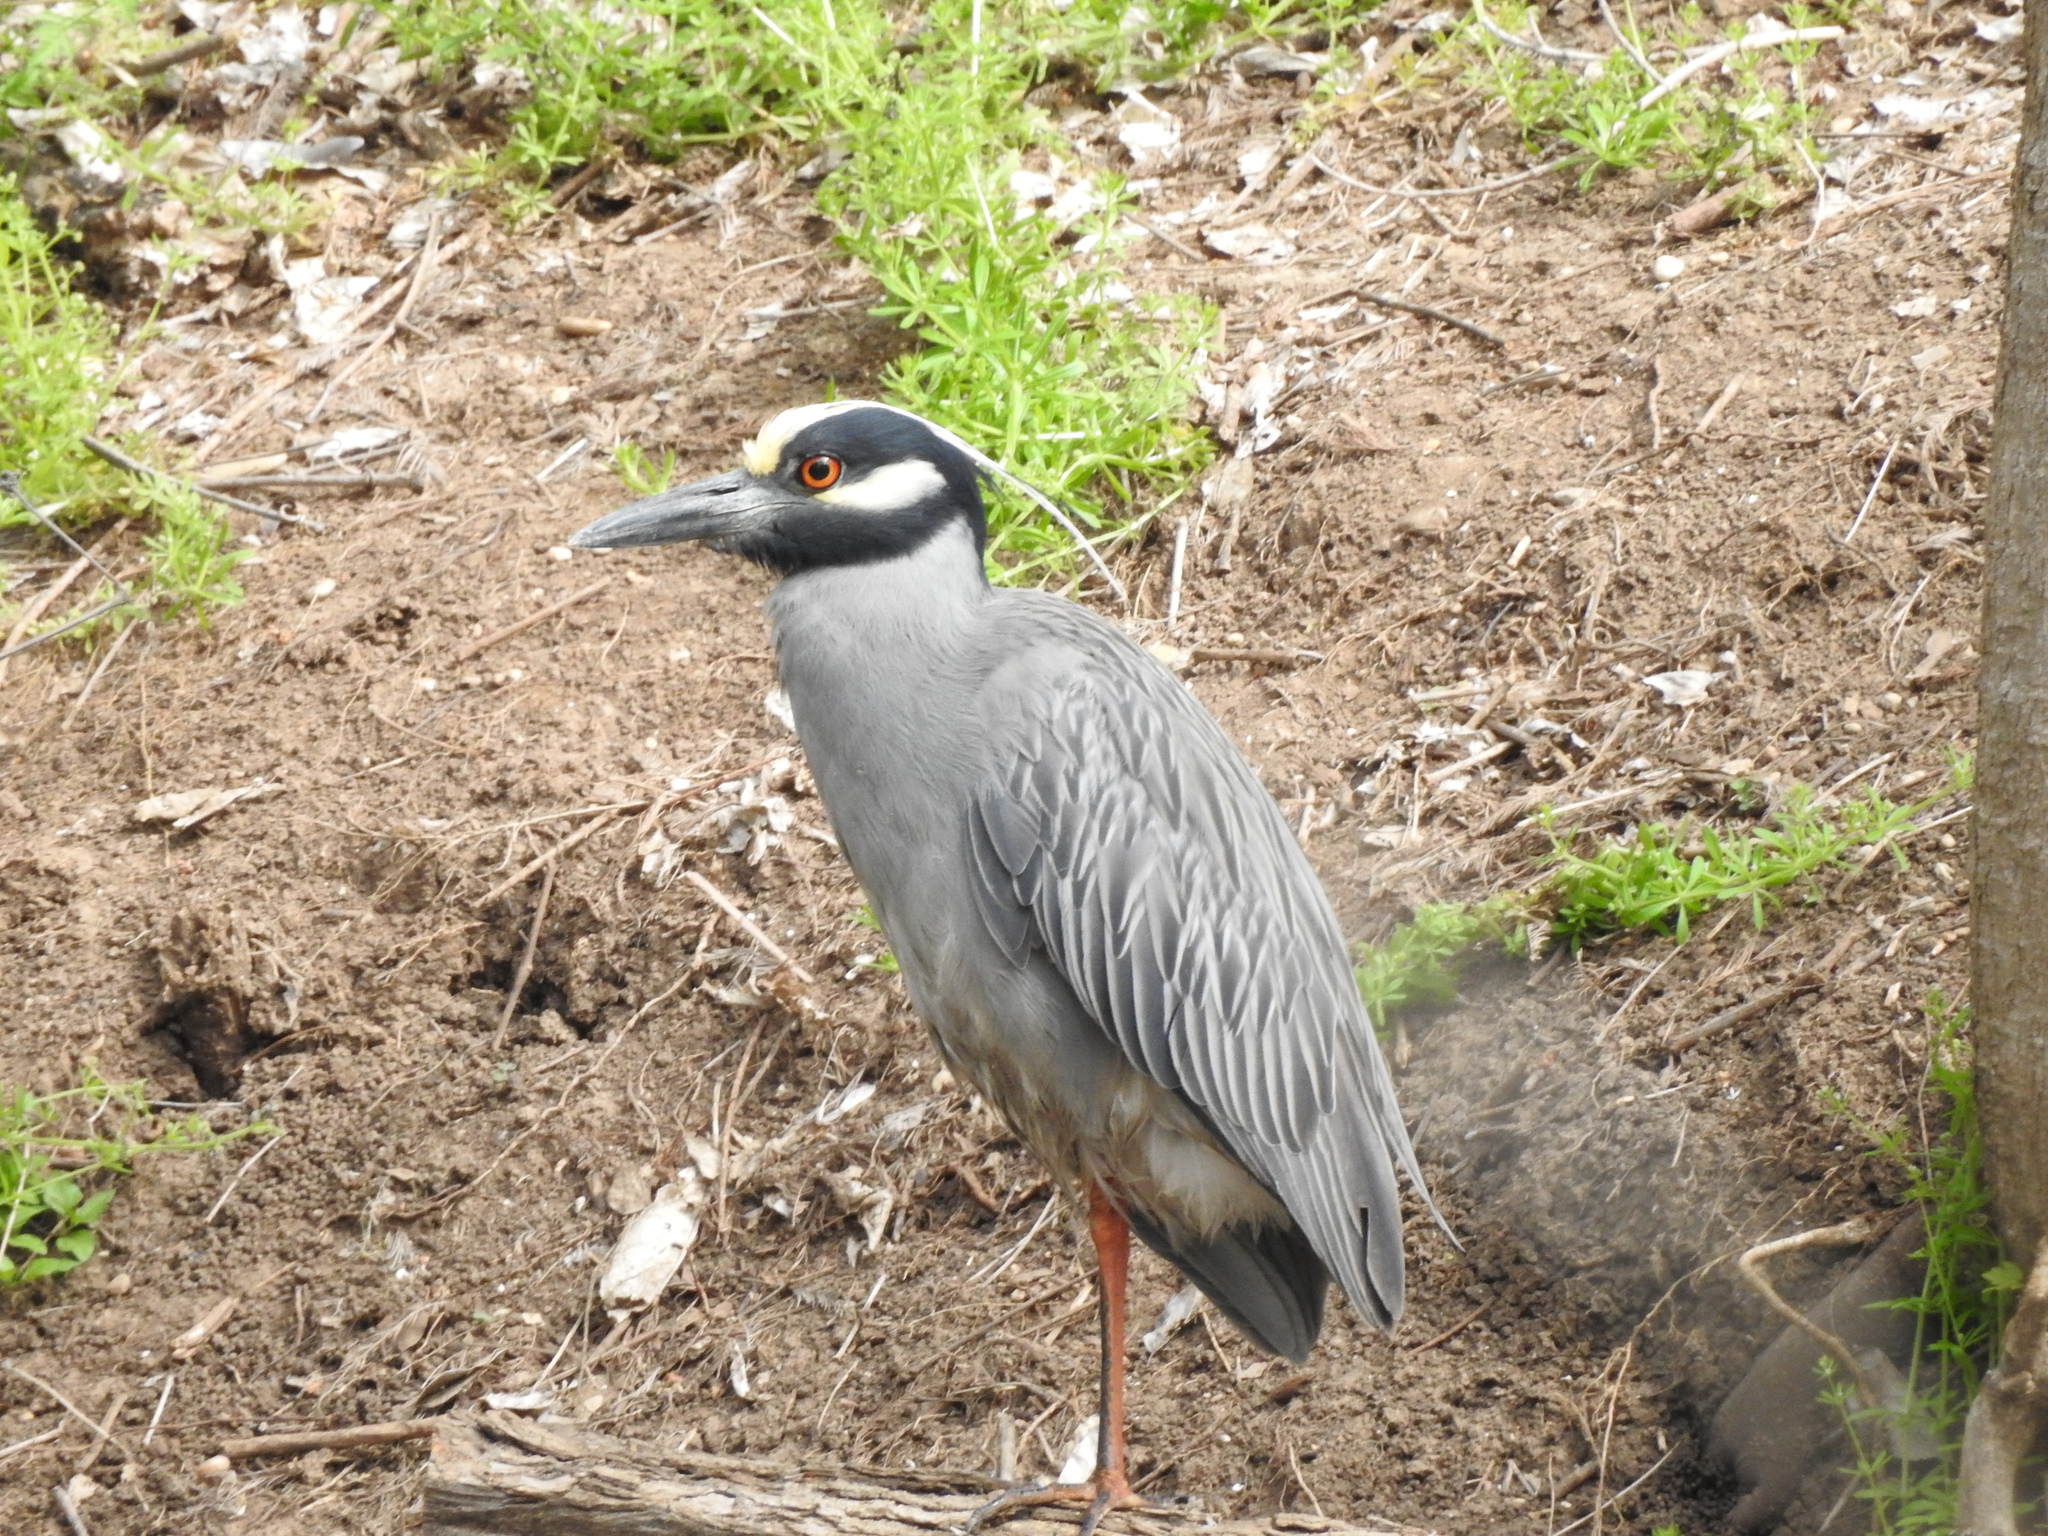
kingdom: Animalia
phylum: Chordata
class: Aves
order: Pelecaniformes
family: Ardeidae
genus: Nyctanassa
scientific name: Nyctanassa violacea
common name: Yellow-crowned night heron
